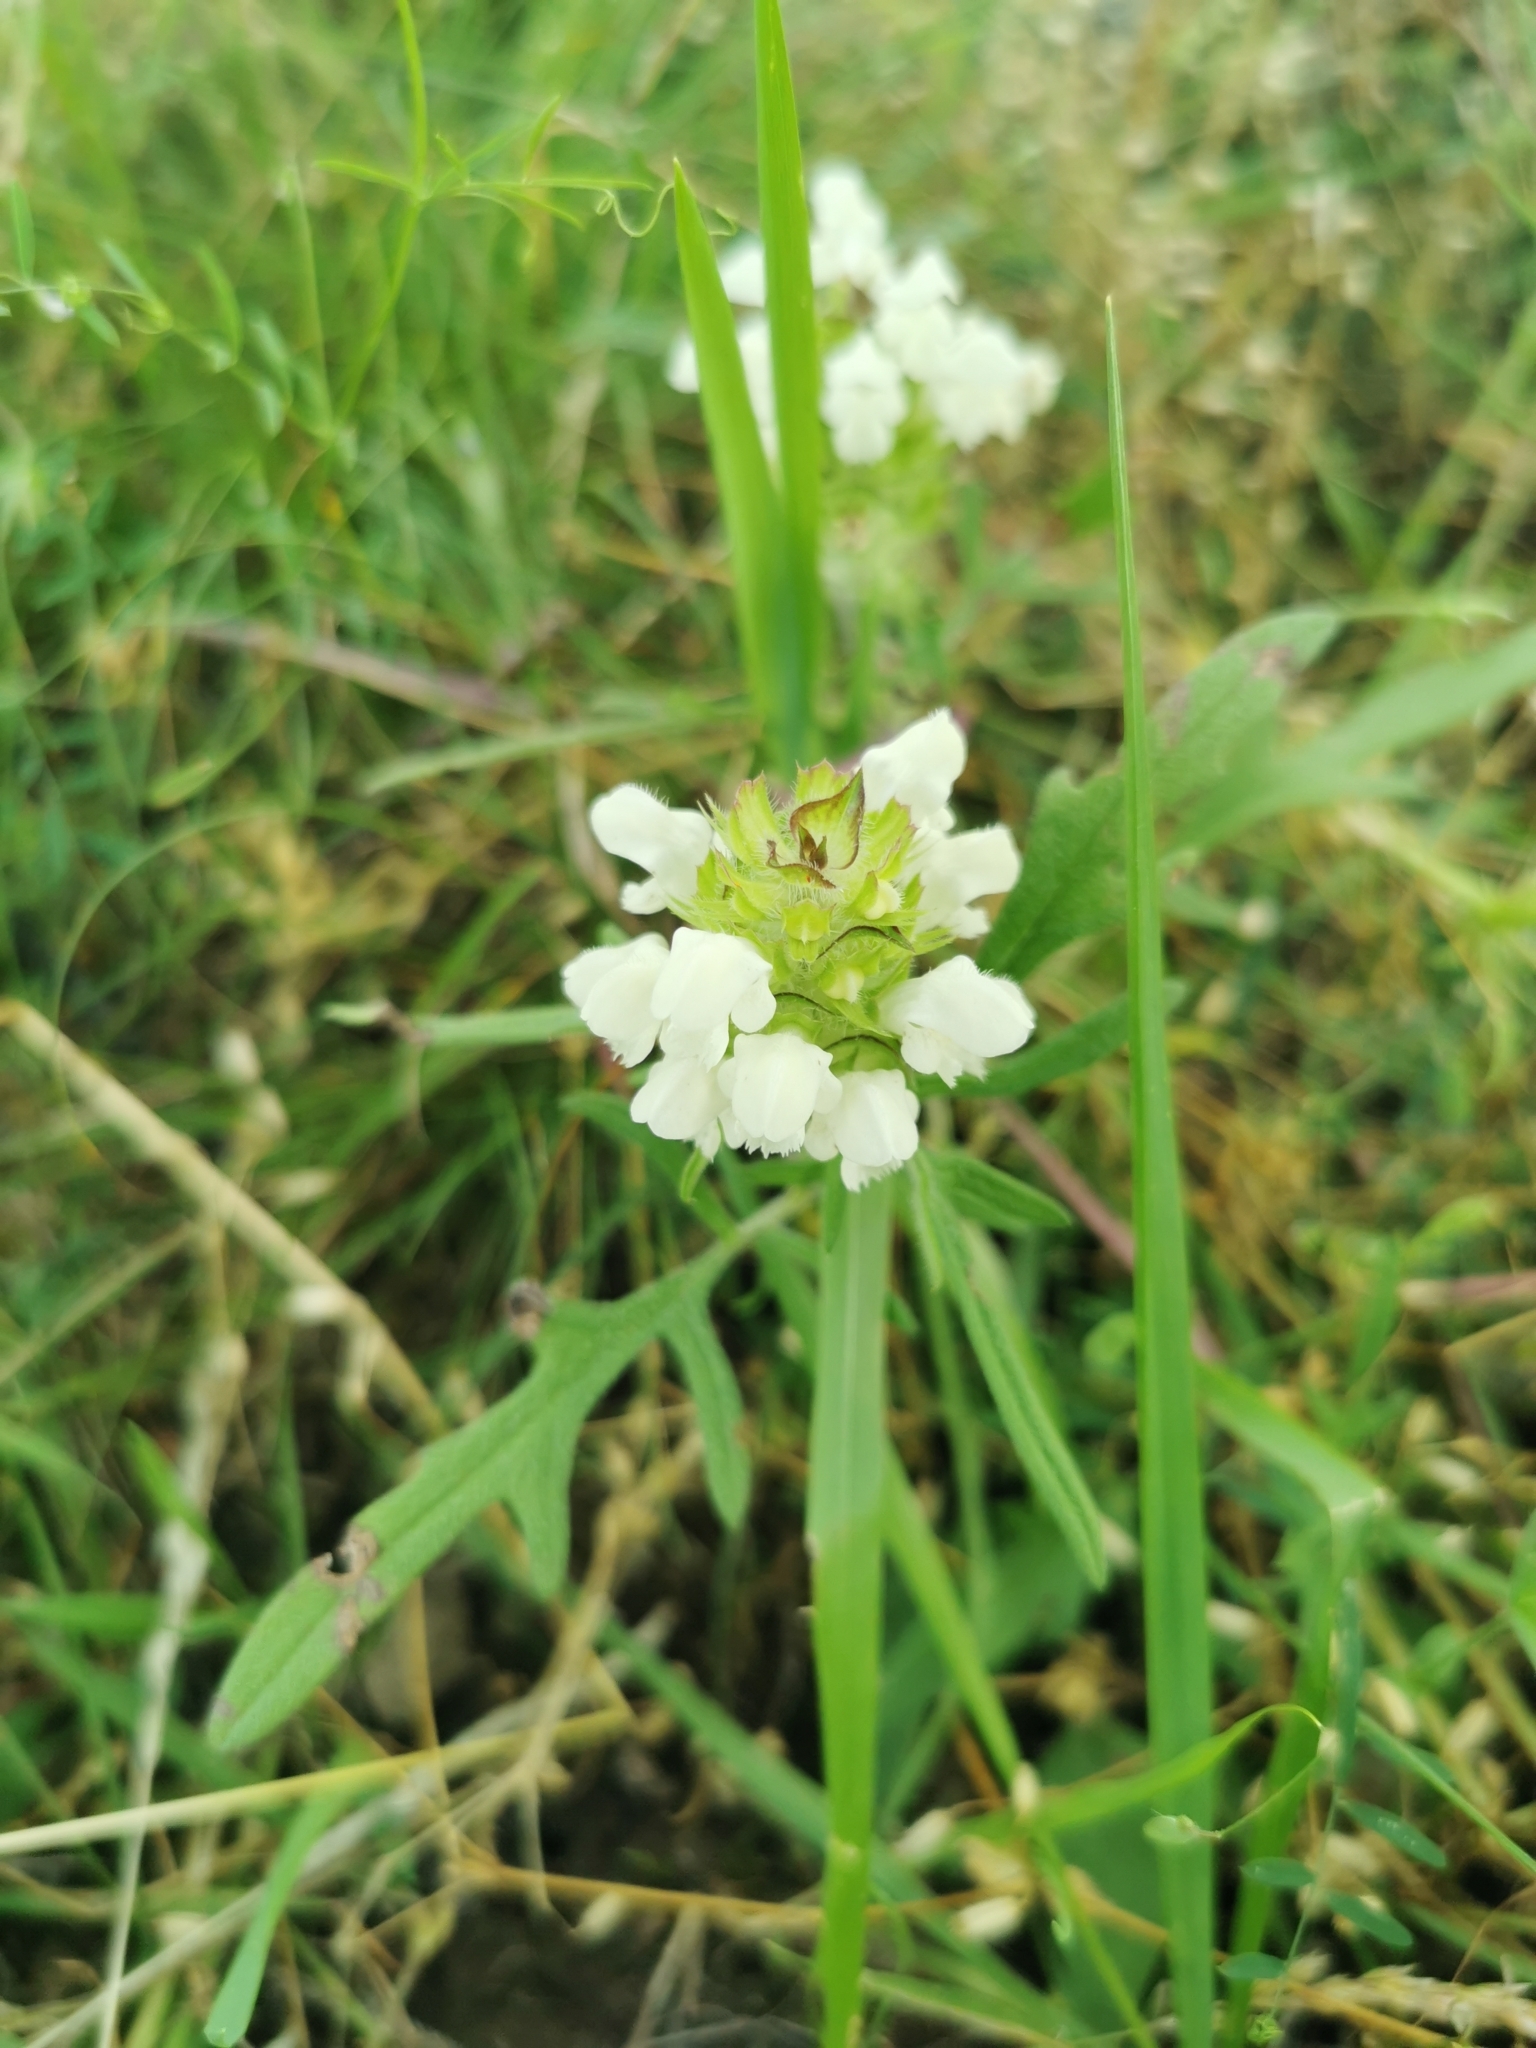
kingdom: Plantae
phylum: Tracheophyta
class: Magnoliopsida
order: Lamiales
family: Lamiaceae
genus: Prunella
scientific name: Prunella laciniata
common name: Cut-leaved selfheal
